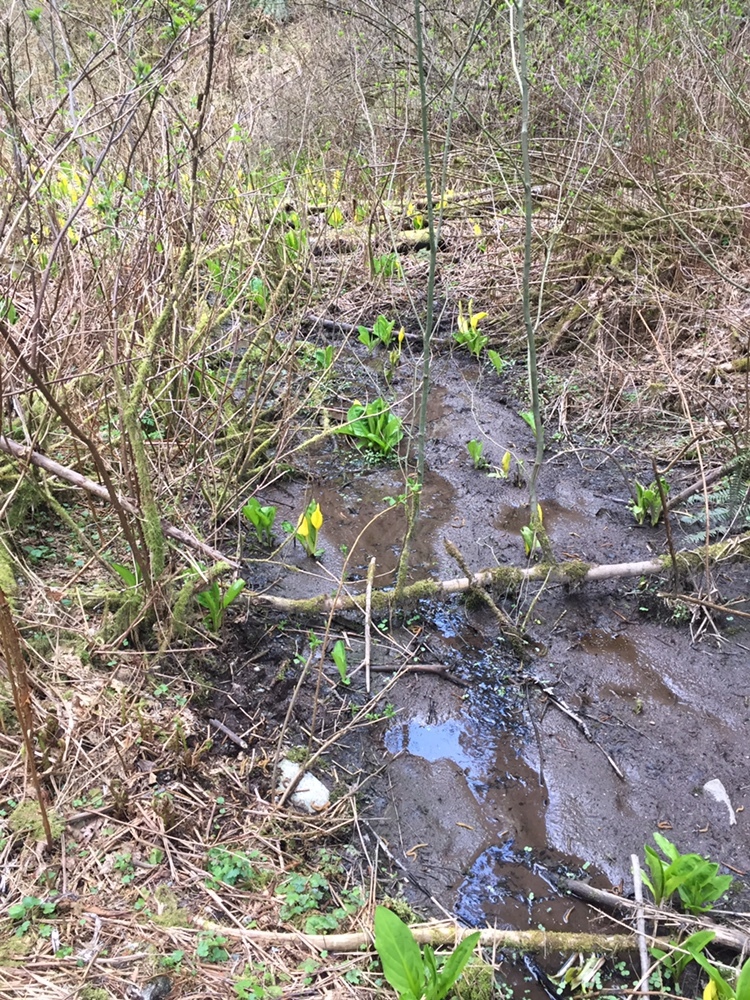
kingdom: Plantae
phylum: Tracheophyta
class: Liliopsida
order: Alismatales
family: Araceae
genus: Lysichiton
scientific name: Lysichiton americanus
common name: American skunk cabbage
